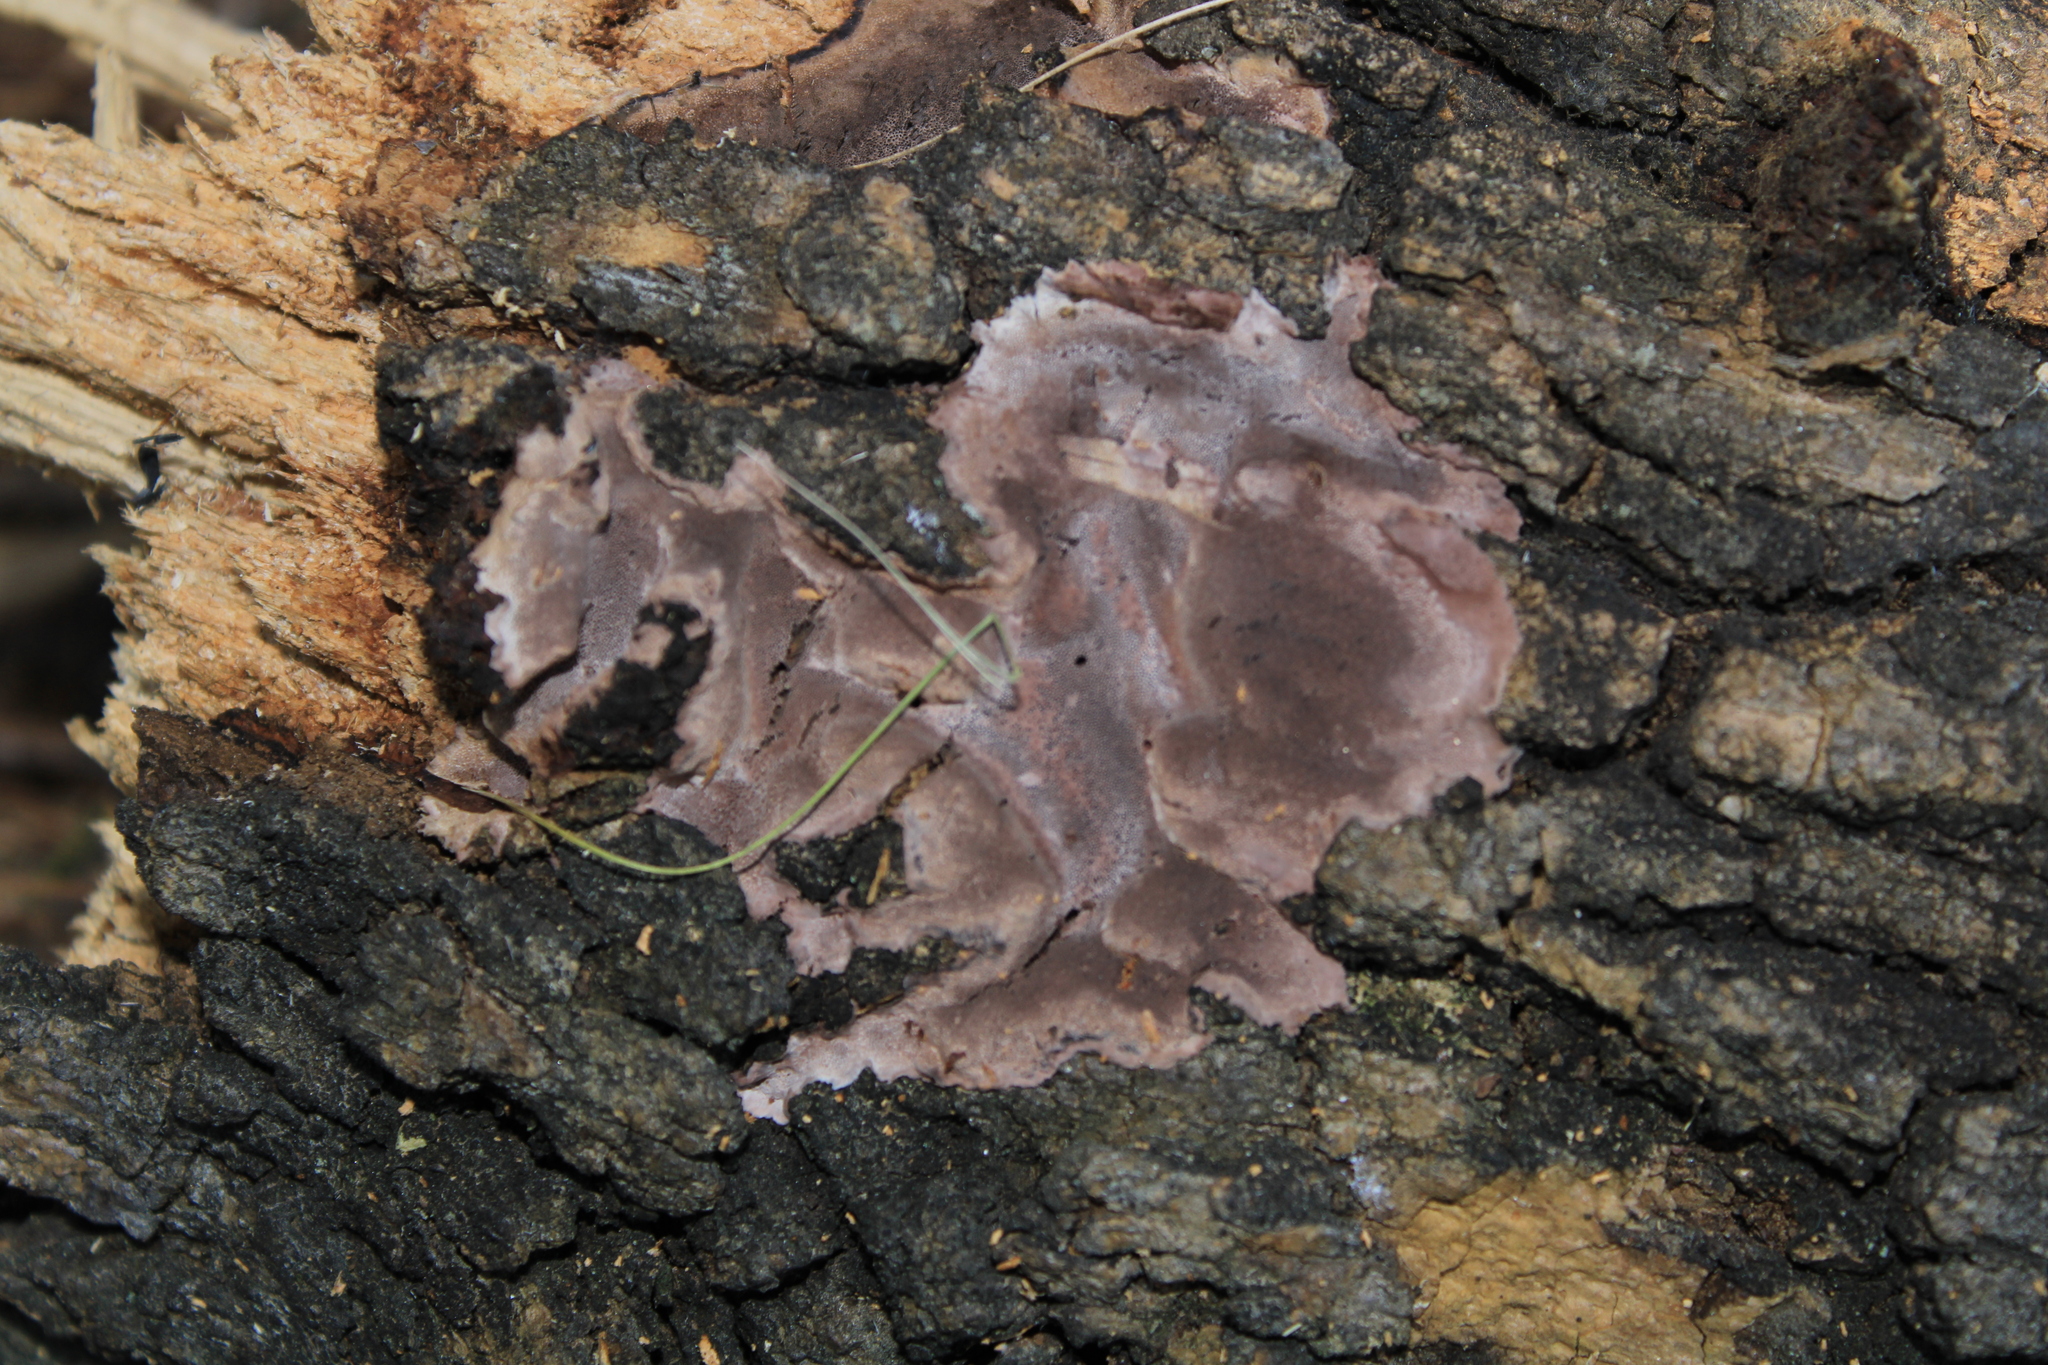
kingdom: Fungi
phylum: Basidiomycota
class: Agaricomycetes
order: Agaricales
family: Cyphellaceae
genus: Chondrostereum
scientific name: Chondrostereum purpureum
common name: Silver leaf disease
